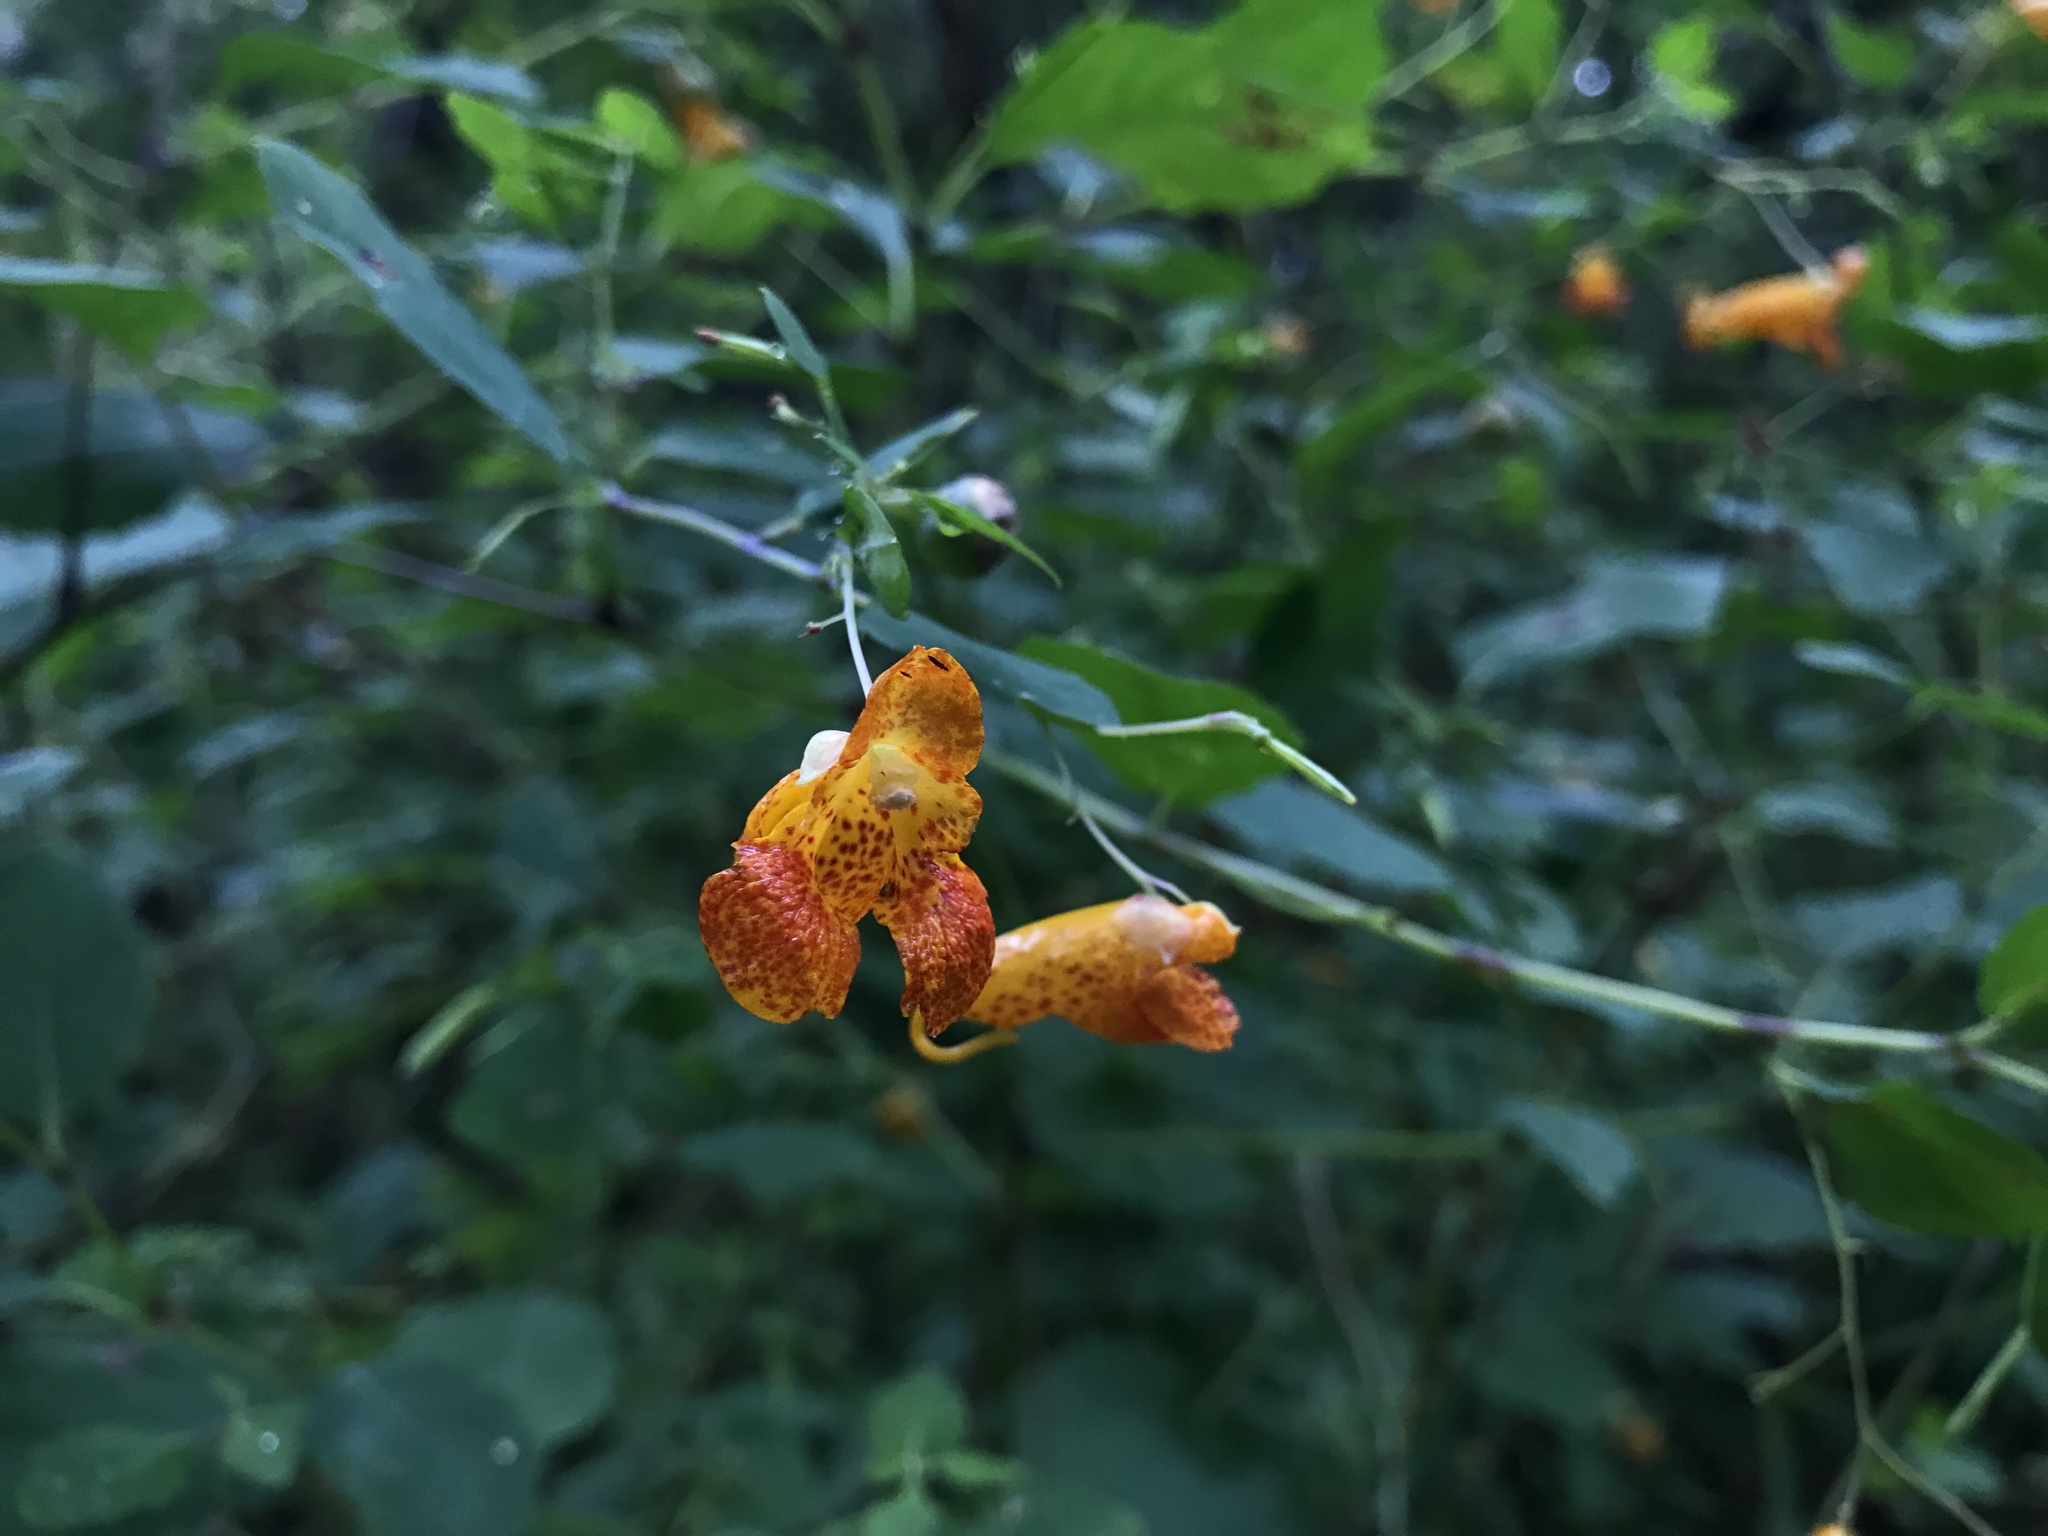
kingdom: Plantae
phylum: Tracheophyta
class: Magnoliopsida
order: Ericales
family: Balsaminaceae
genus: Impatiens
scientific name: Impatiens capensis
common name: Orange balsam
